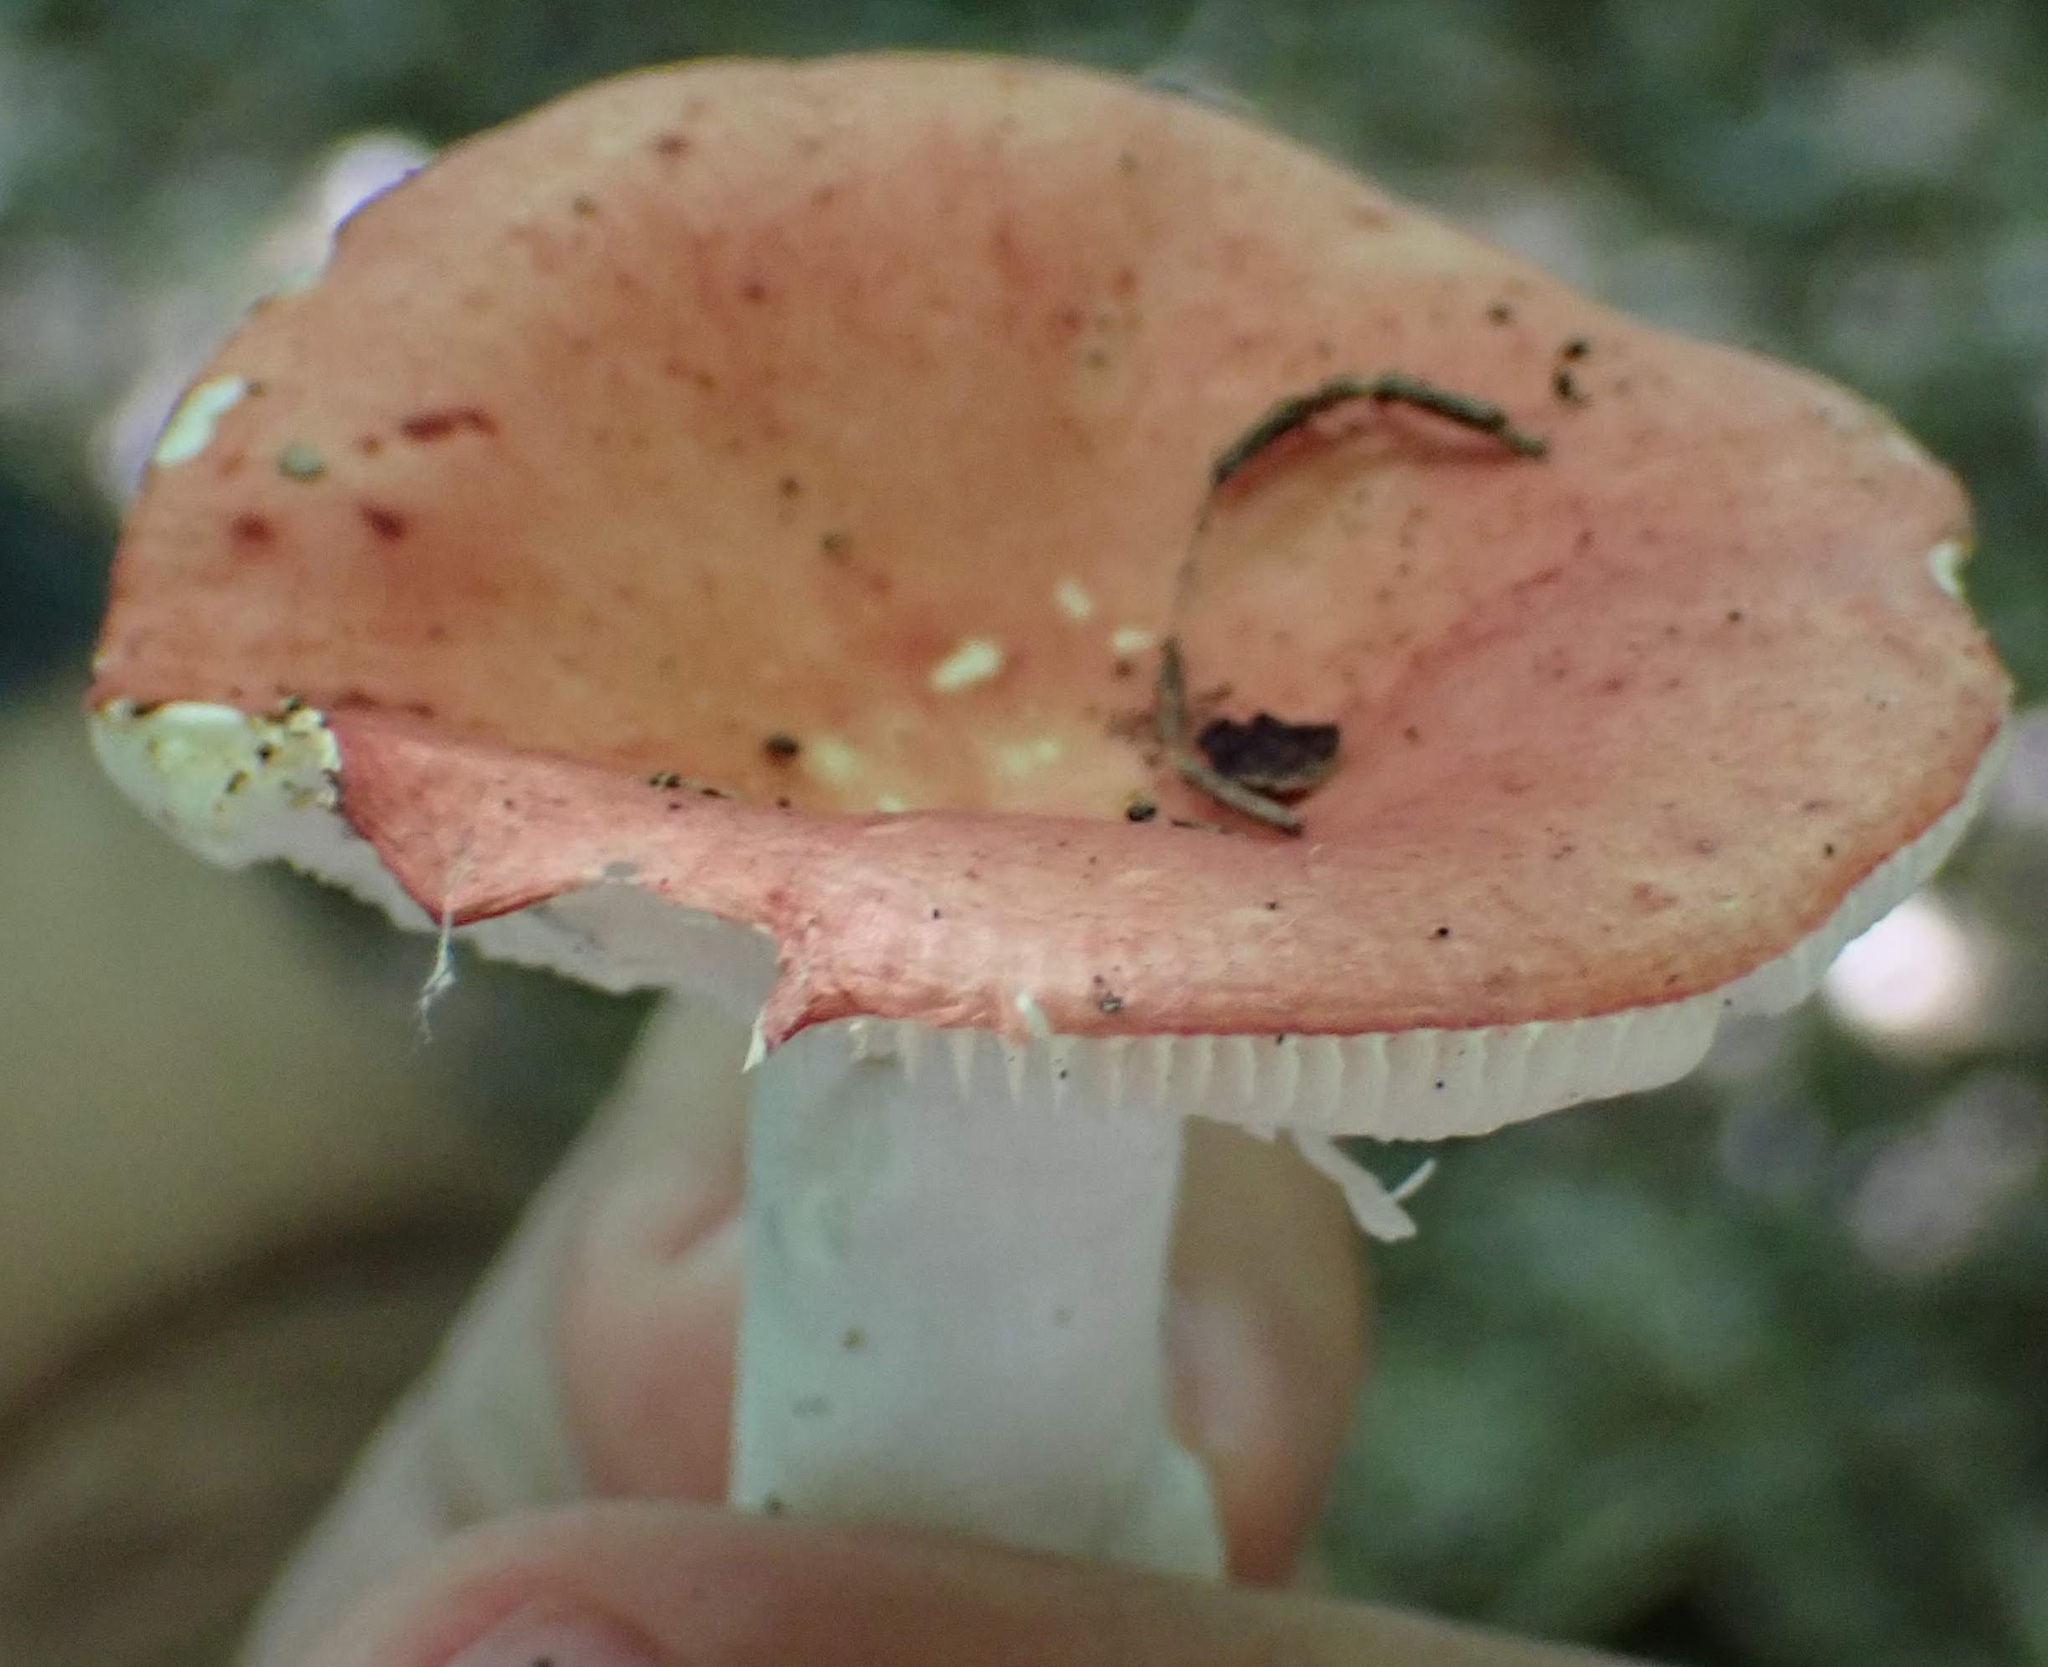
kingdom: Fungi
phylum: Basidiomycota
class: Agaricomycetes
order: Russulales
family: Russulaceae
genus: Russula
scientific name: Russula
